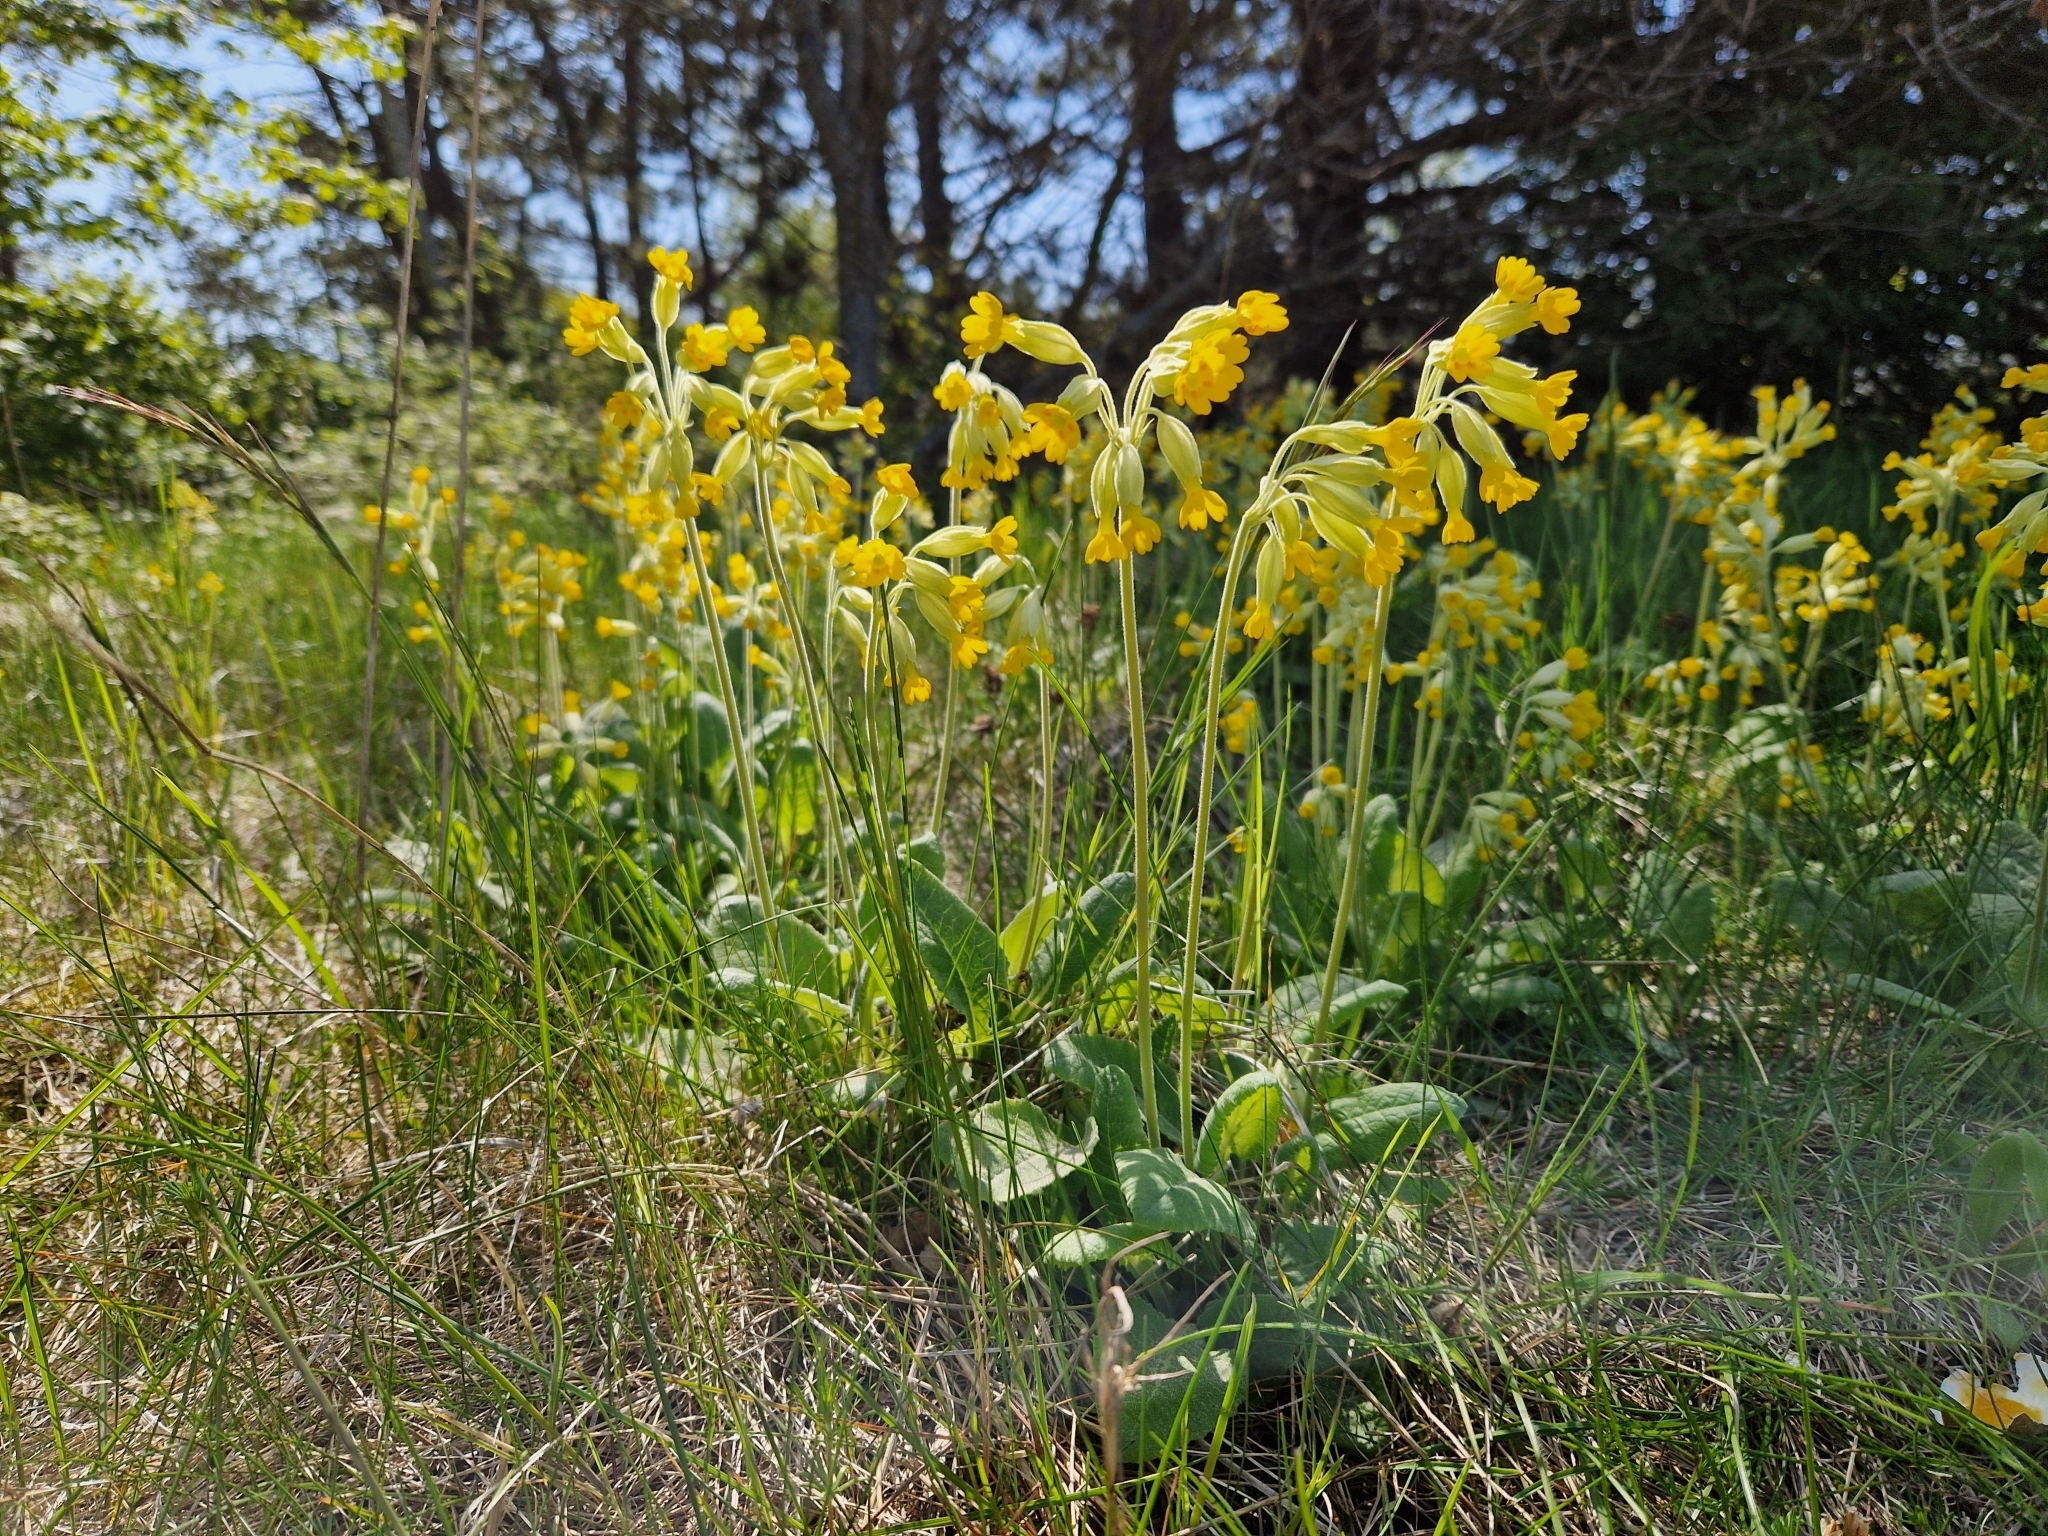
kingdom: Plantae
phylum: Tracheophyta
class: Magnoliopsida
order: Ericales
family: Primulaceae
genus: Primula
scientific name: Primula veris
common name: Cowslip
